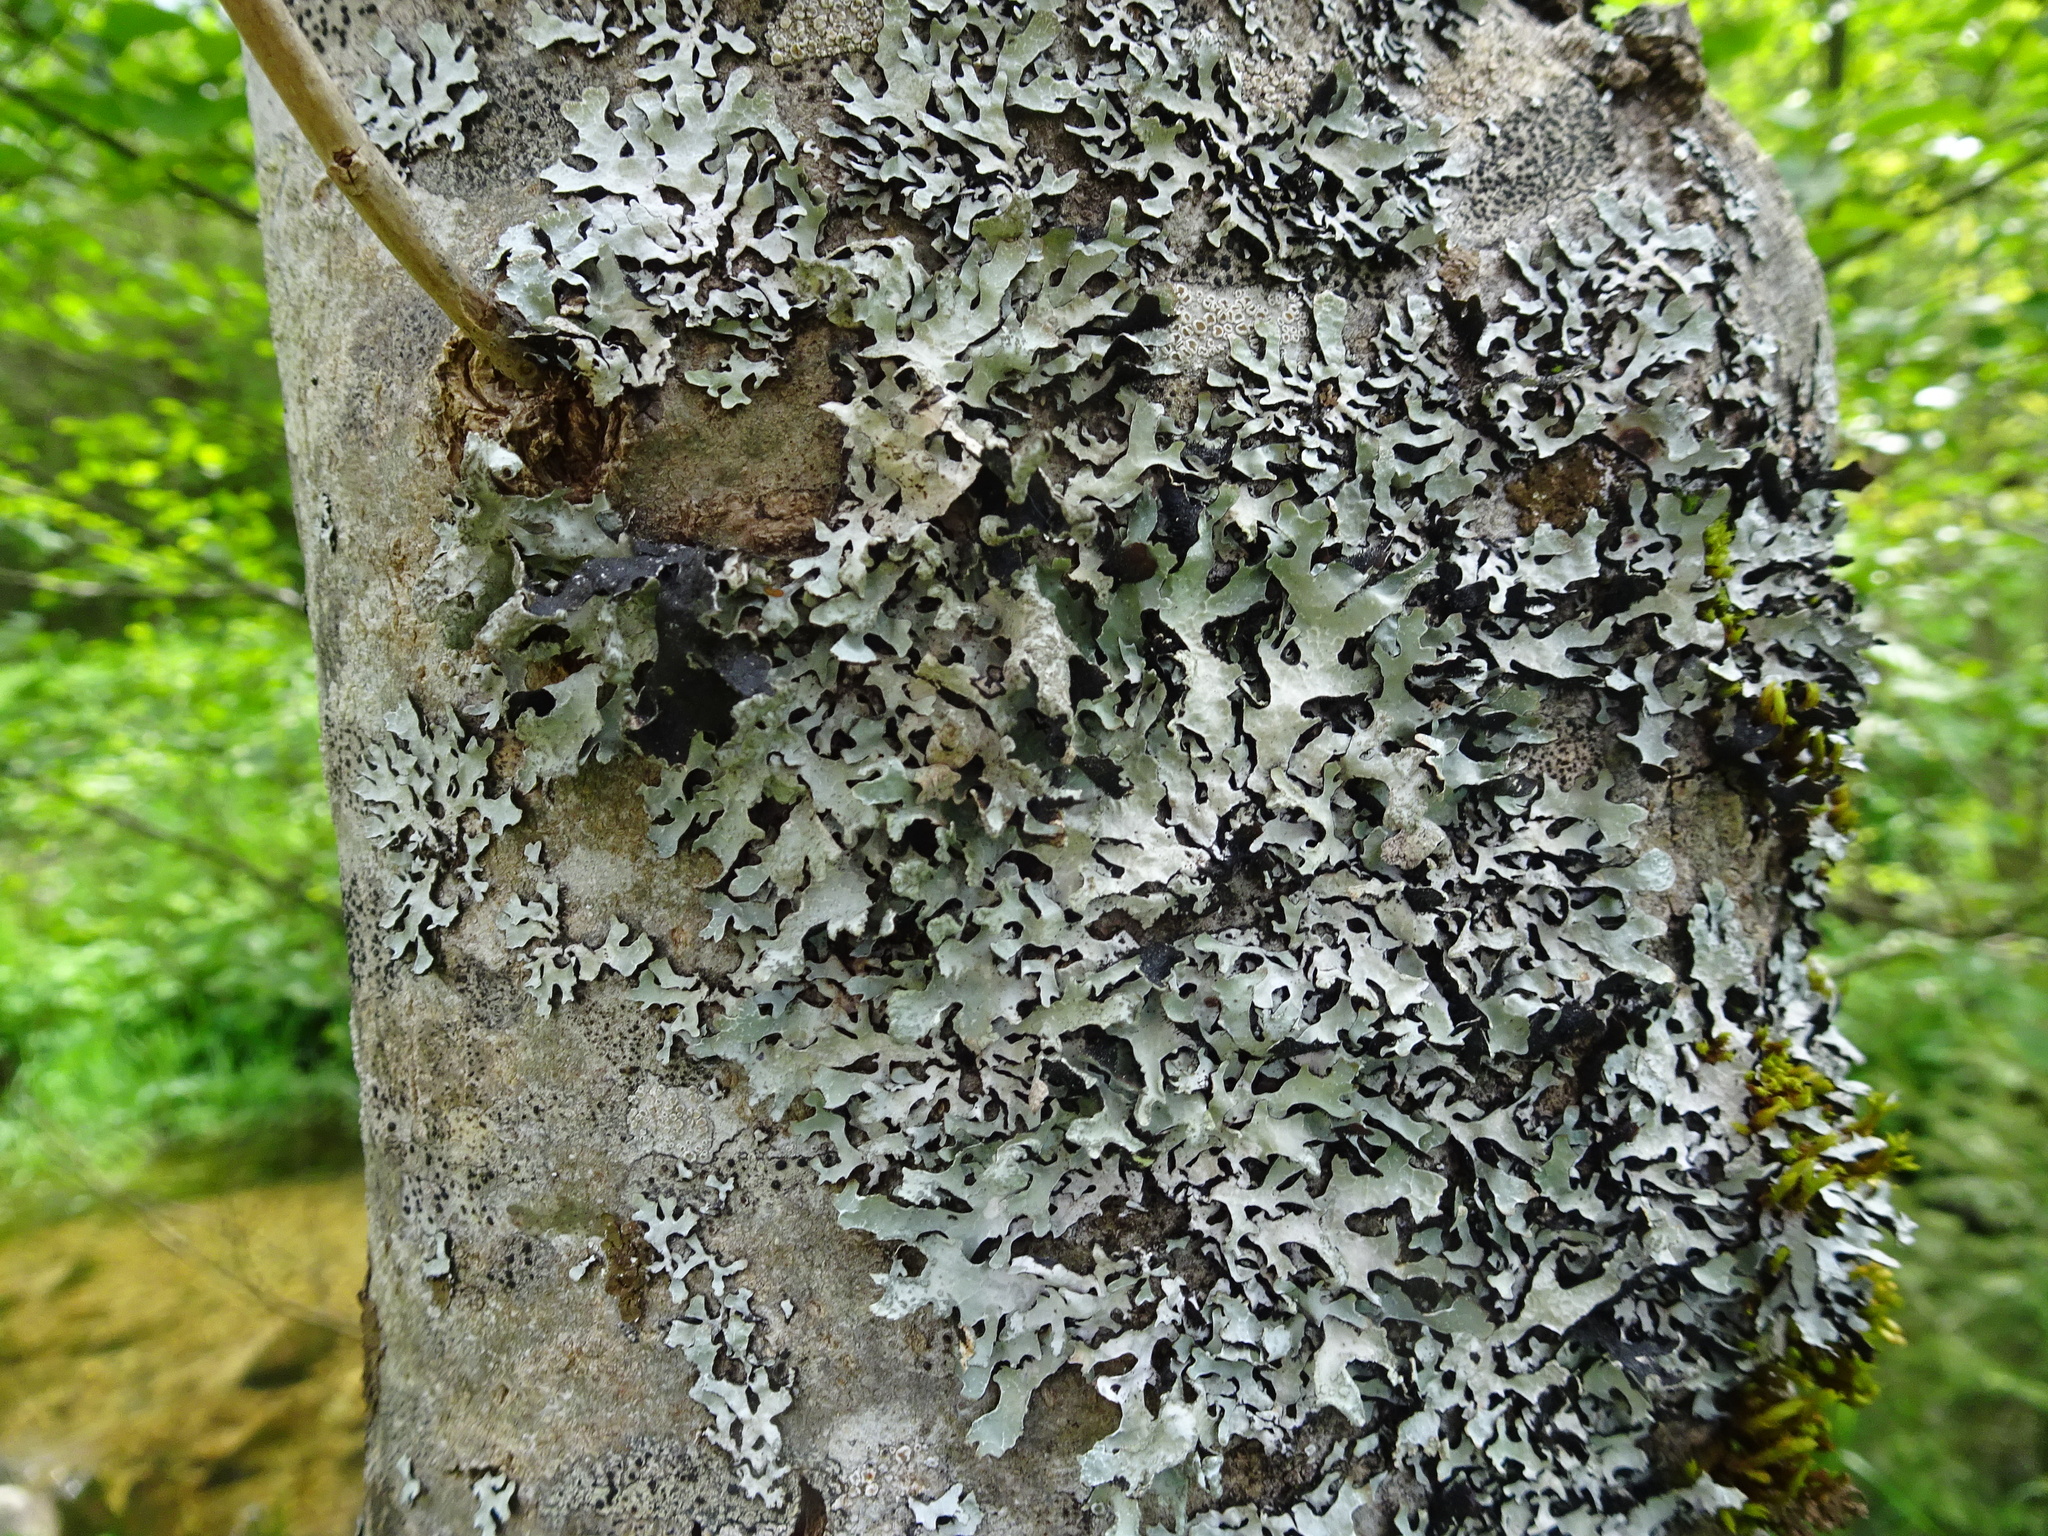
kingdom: Fungi
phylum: Ascomycota
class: Lecanoromycetes
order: Lecanorales
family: Parmeliaceae
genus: Parmelia
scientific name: Parmelia sulcata
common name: Netted shield lichen
